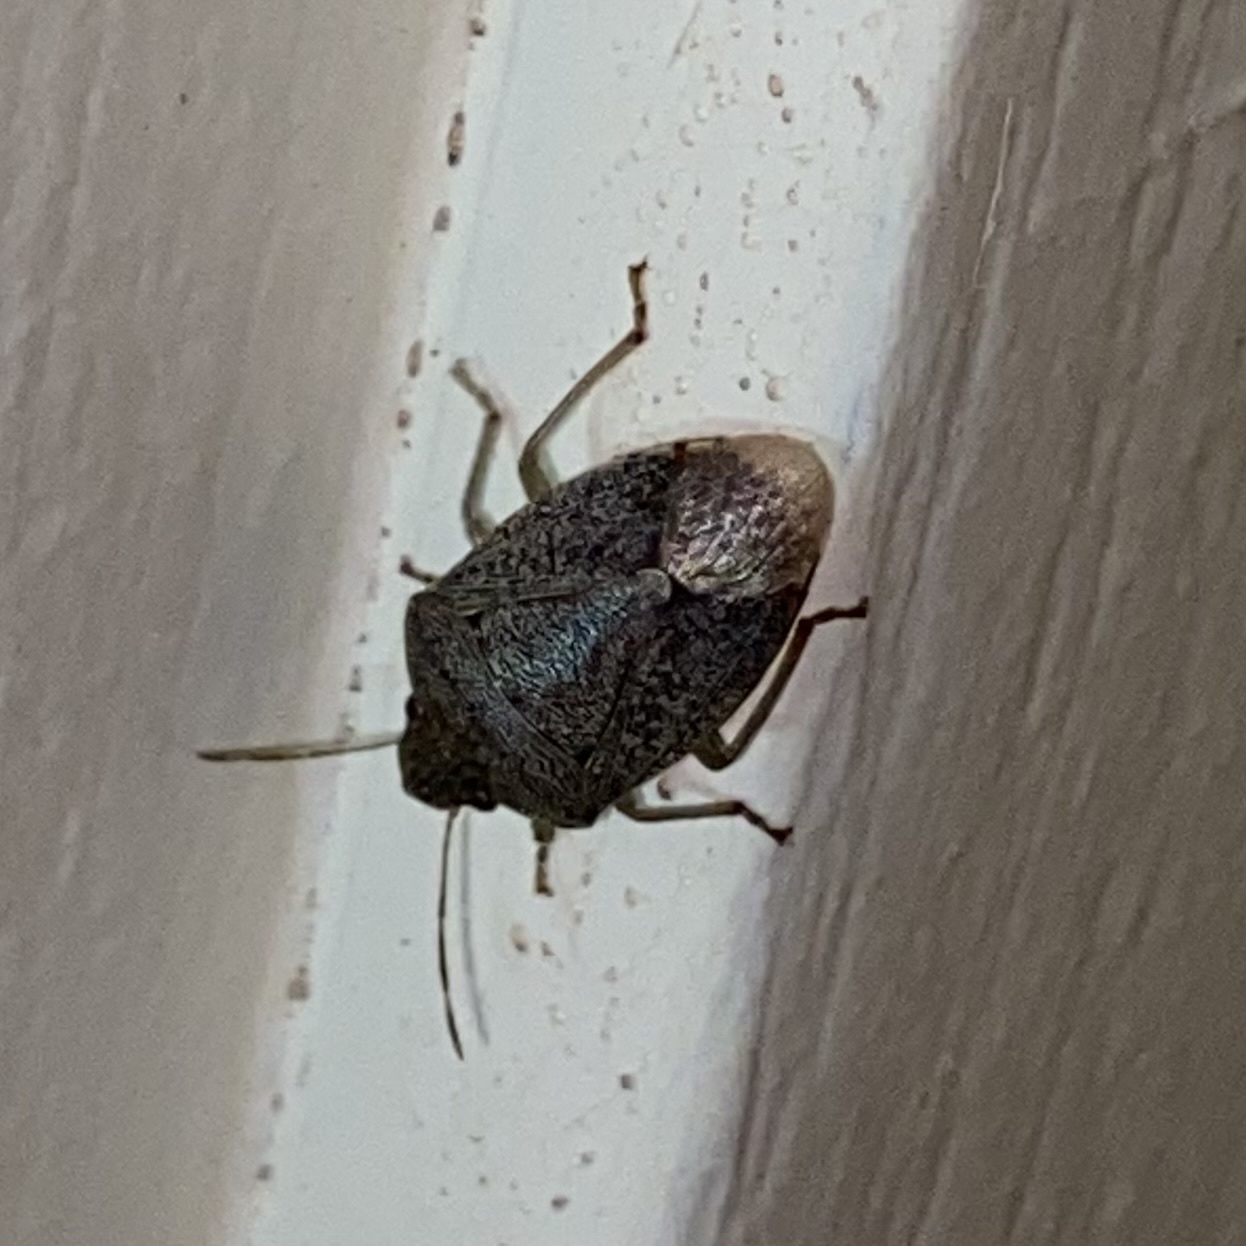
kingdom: Animalia
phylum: Arthropoda
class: Insecta
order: Hemiptera
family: Pentatomidae
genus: Banasa
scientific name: Banasa
